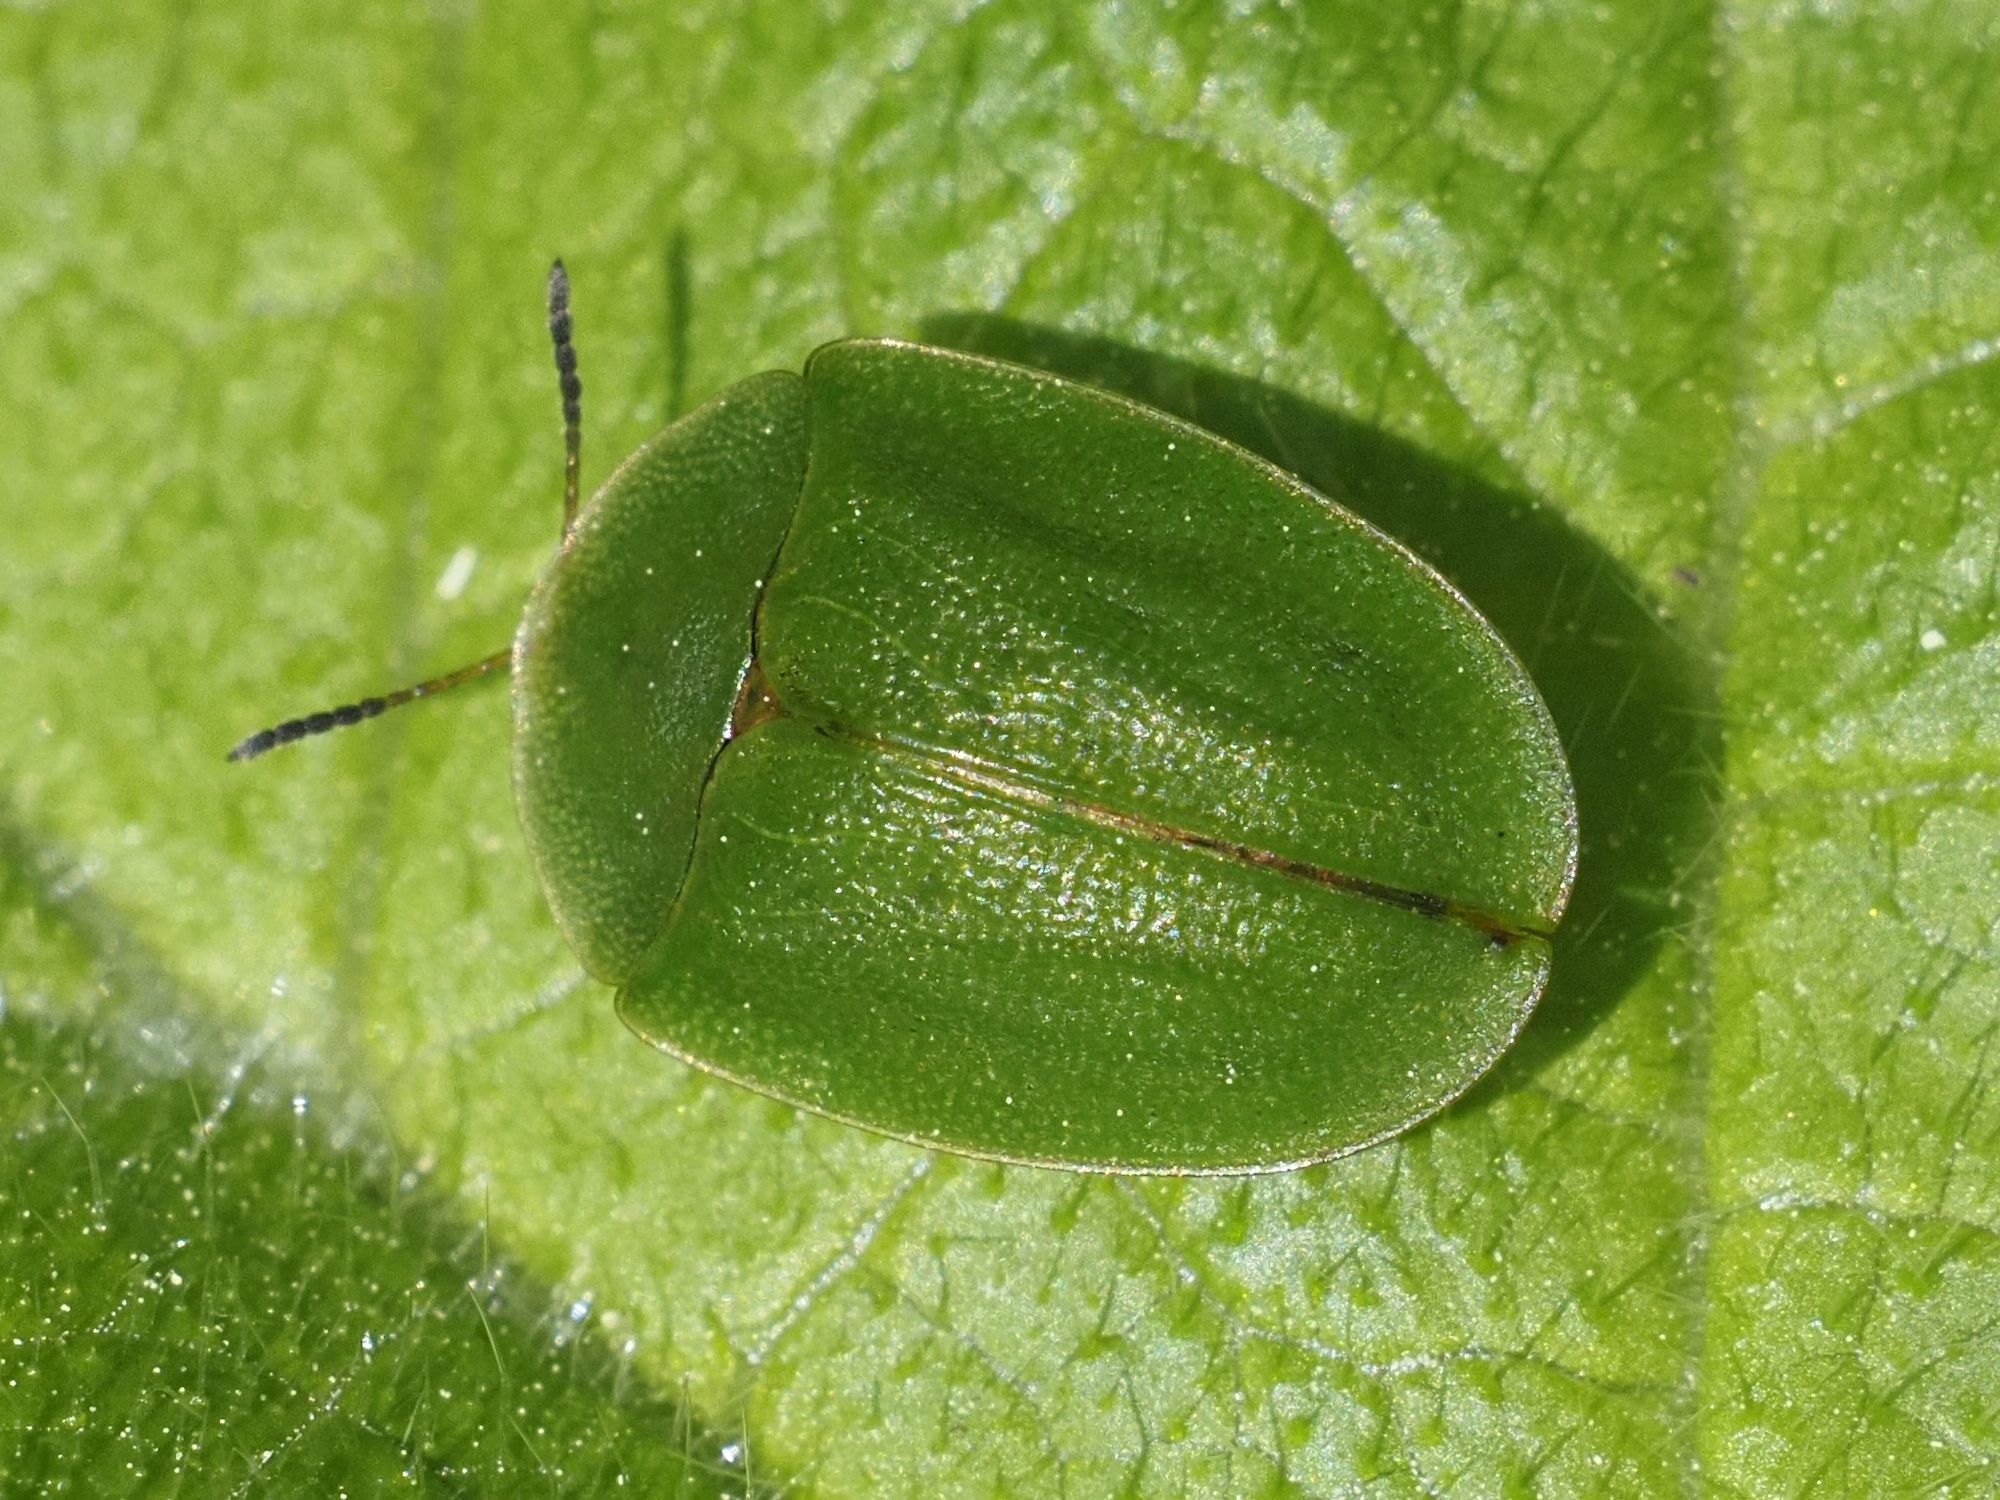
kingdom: Animalia
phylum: Arthropoda
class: Insecta
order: Coleoptera
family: Chrysomelidae
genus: Cassida
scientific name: Cassida viridis
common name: Green tortoise beetle
